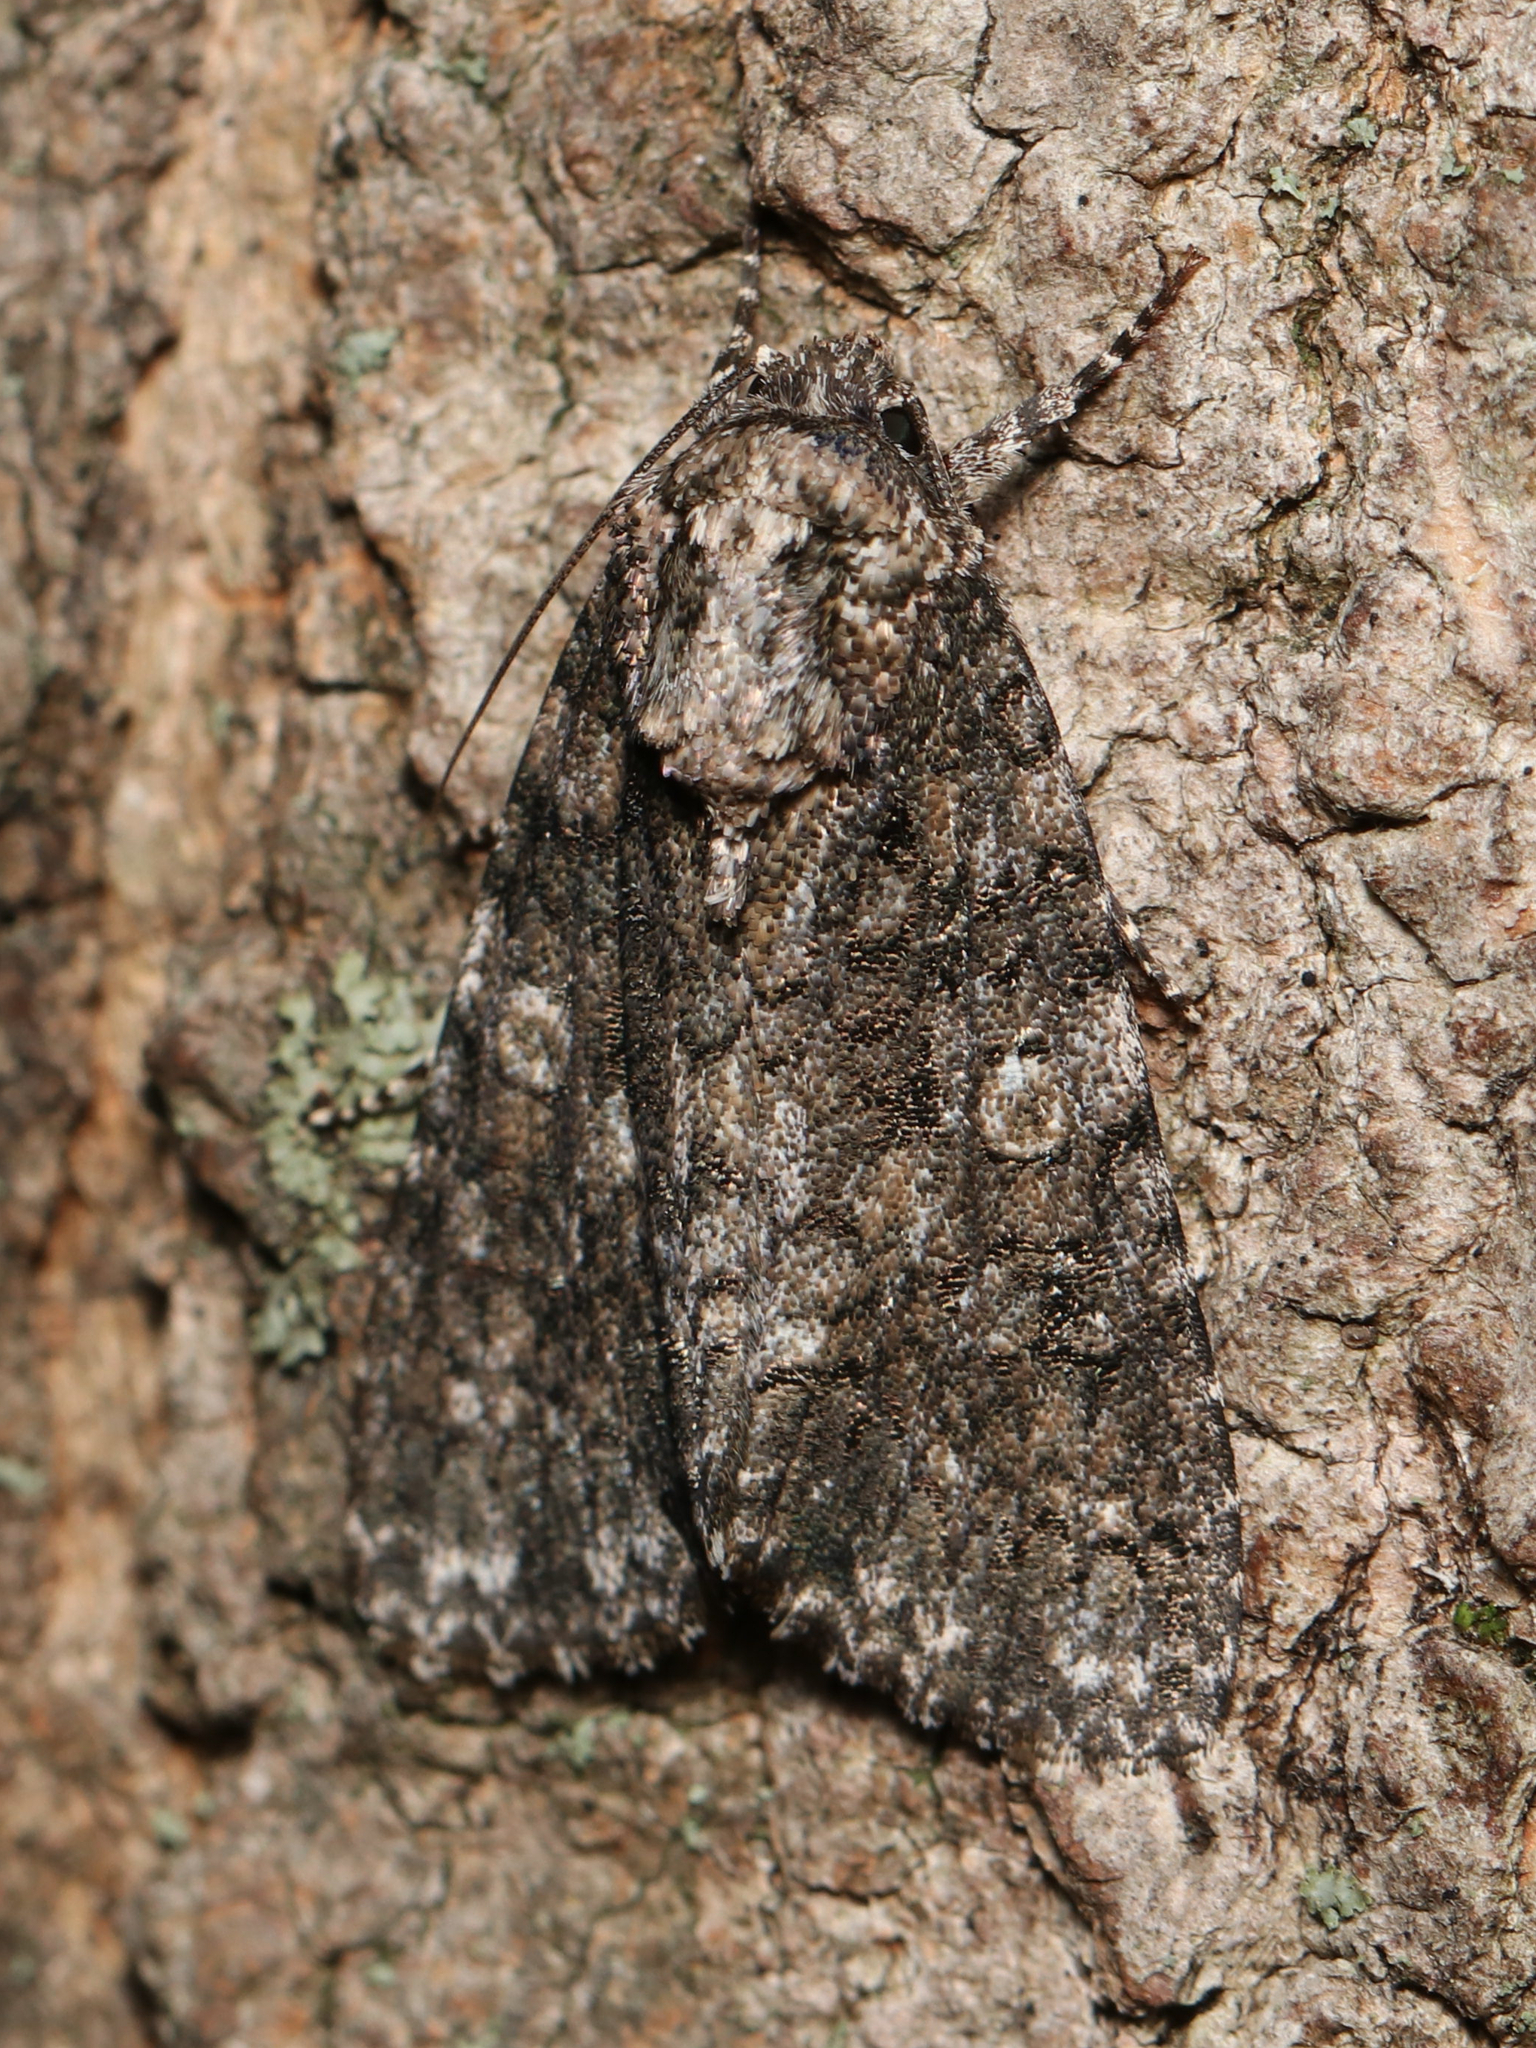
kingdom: Animalia
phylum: Arthropoda
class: Insecta
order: Lepidoptera
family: Noctuidae
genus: Acronicta
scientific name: Acronicta afflicta
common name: Afflicted dagger moth
